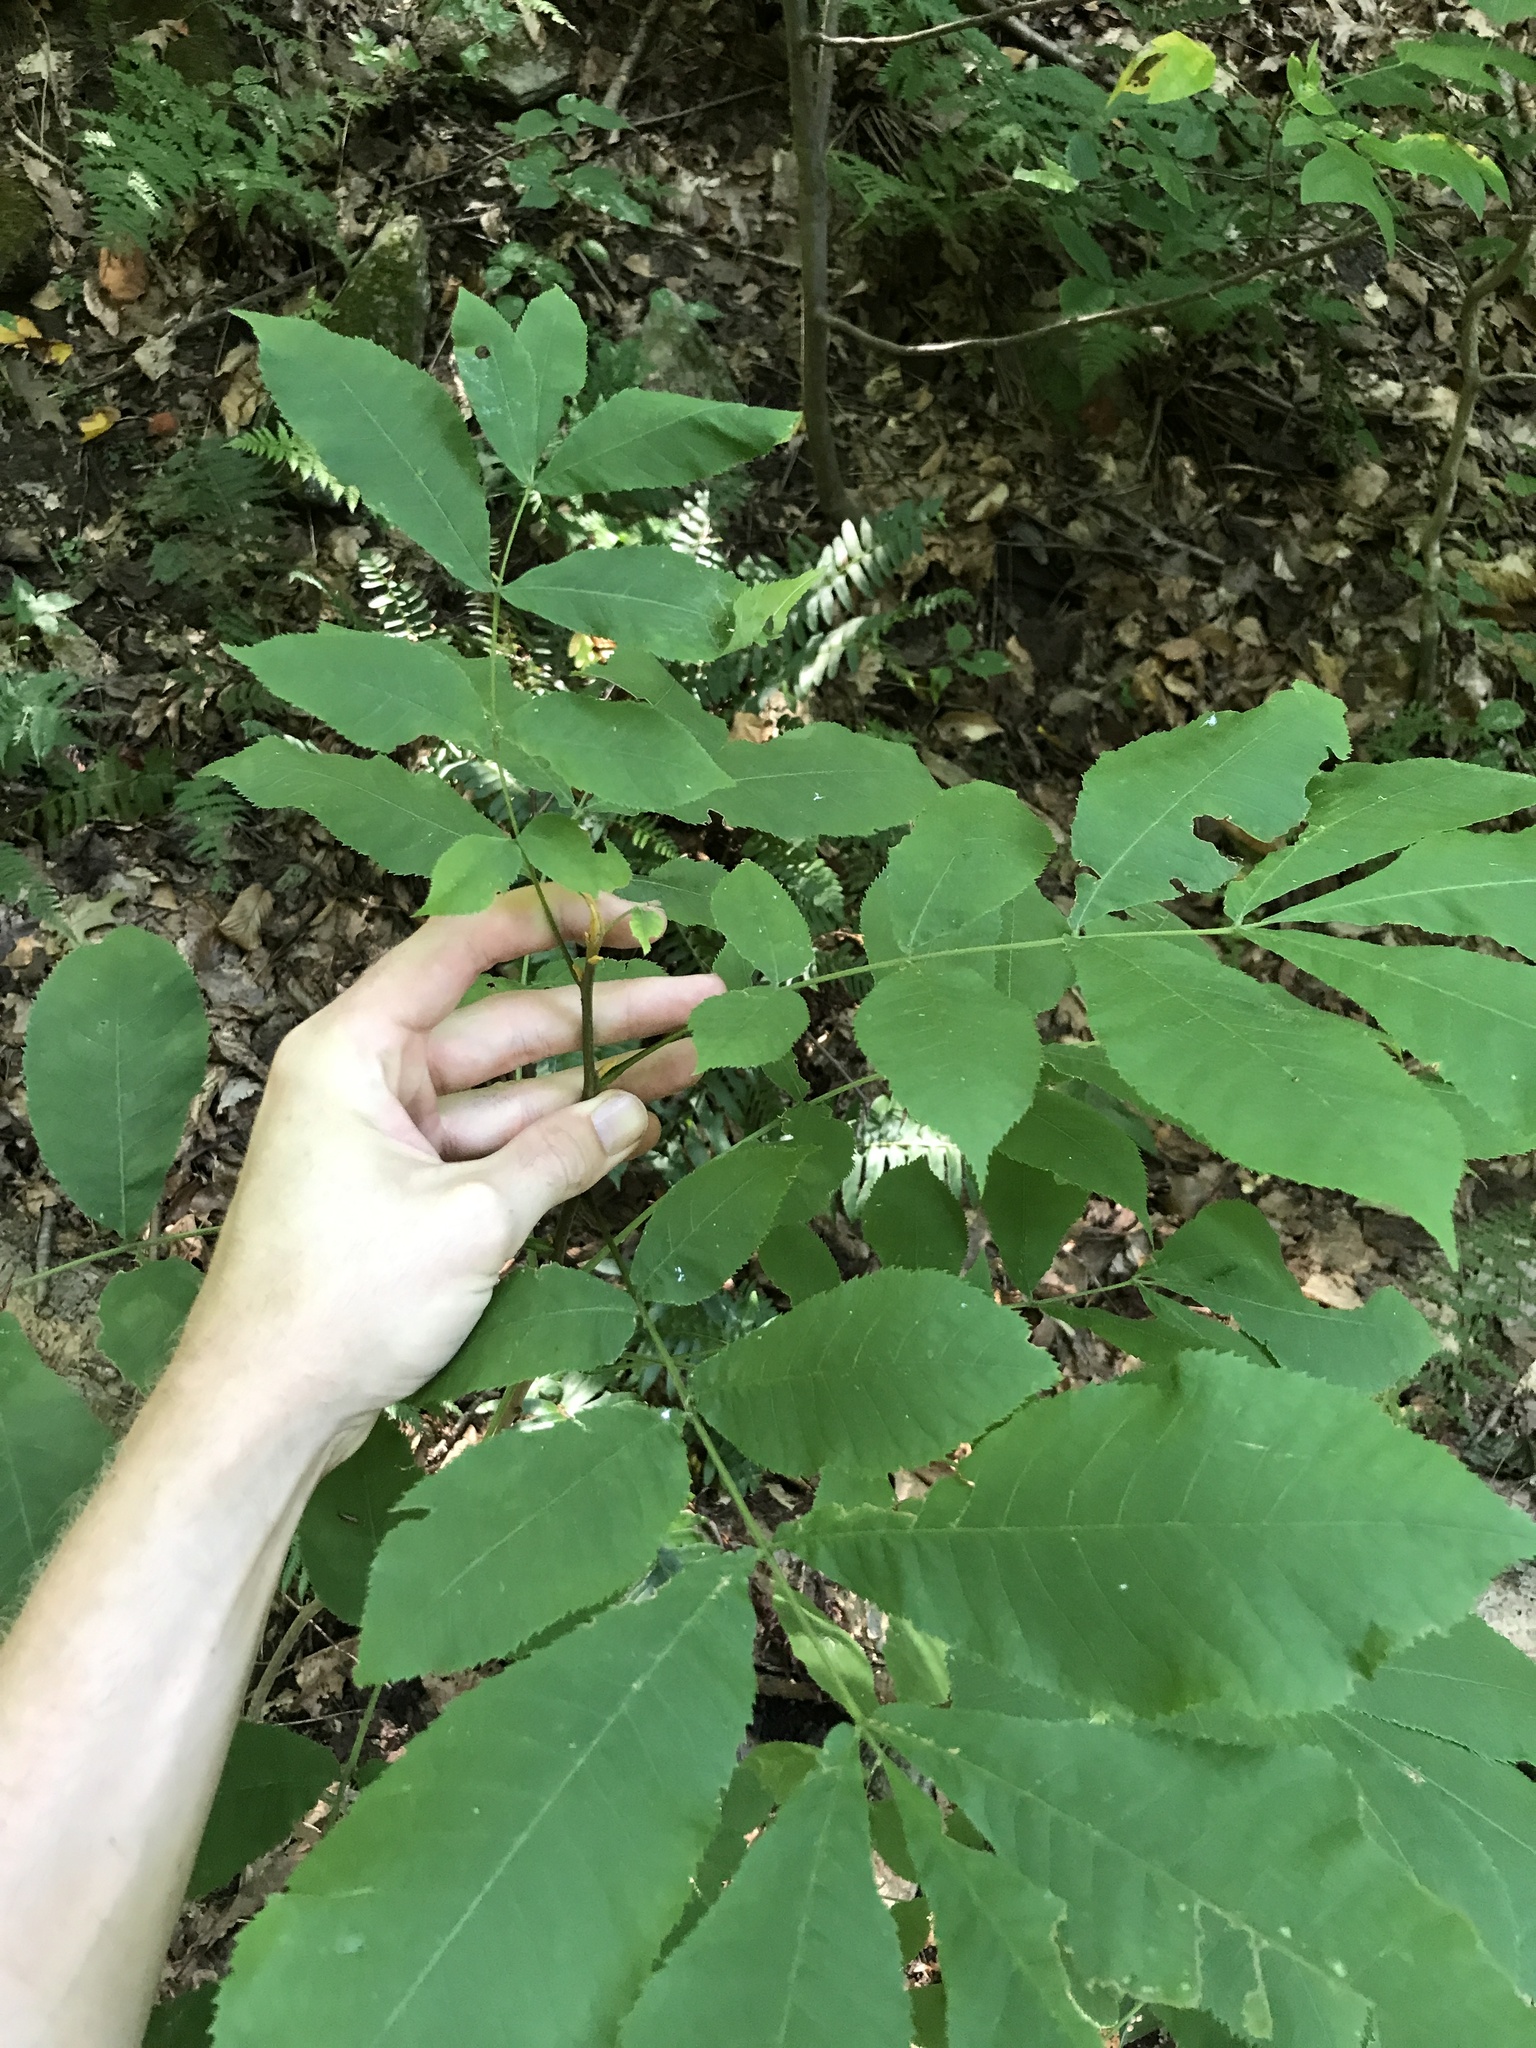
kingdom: Plantae
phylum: Tracheophyta
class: Magnoliopsida
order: Fagales
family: Juglandaceae
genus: Carya
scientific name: Carya cordiformis
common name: Bitternut hickory
